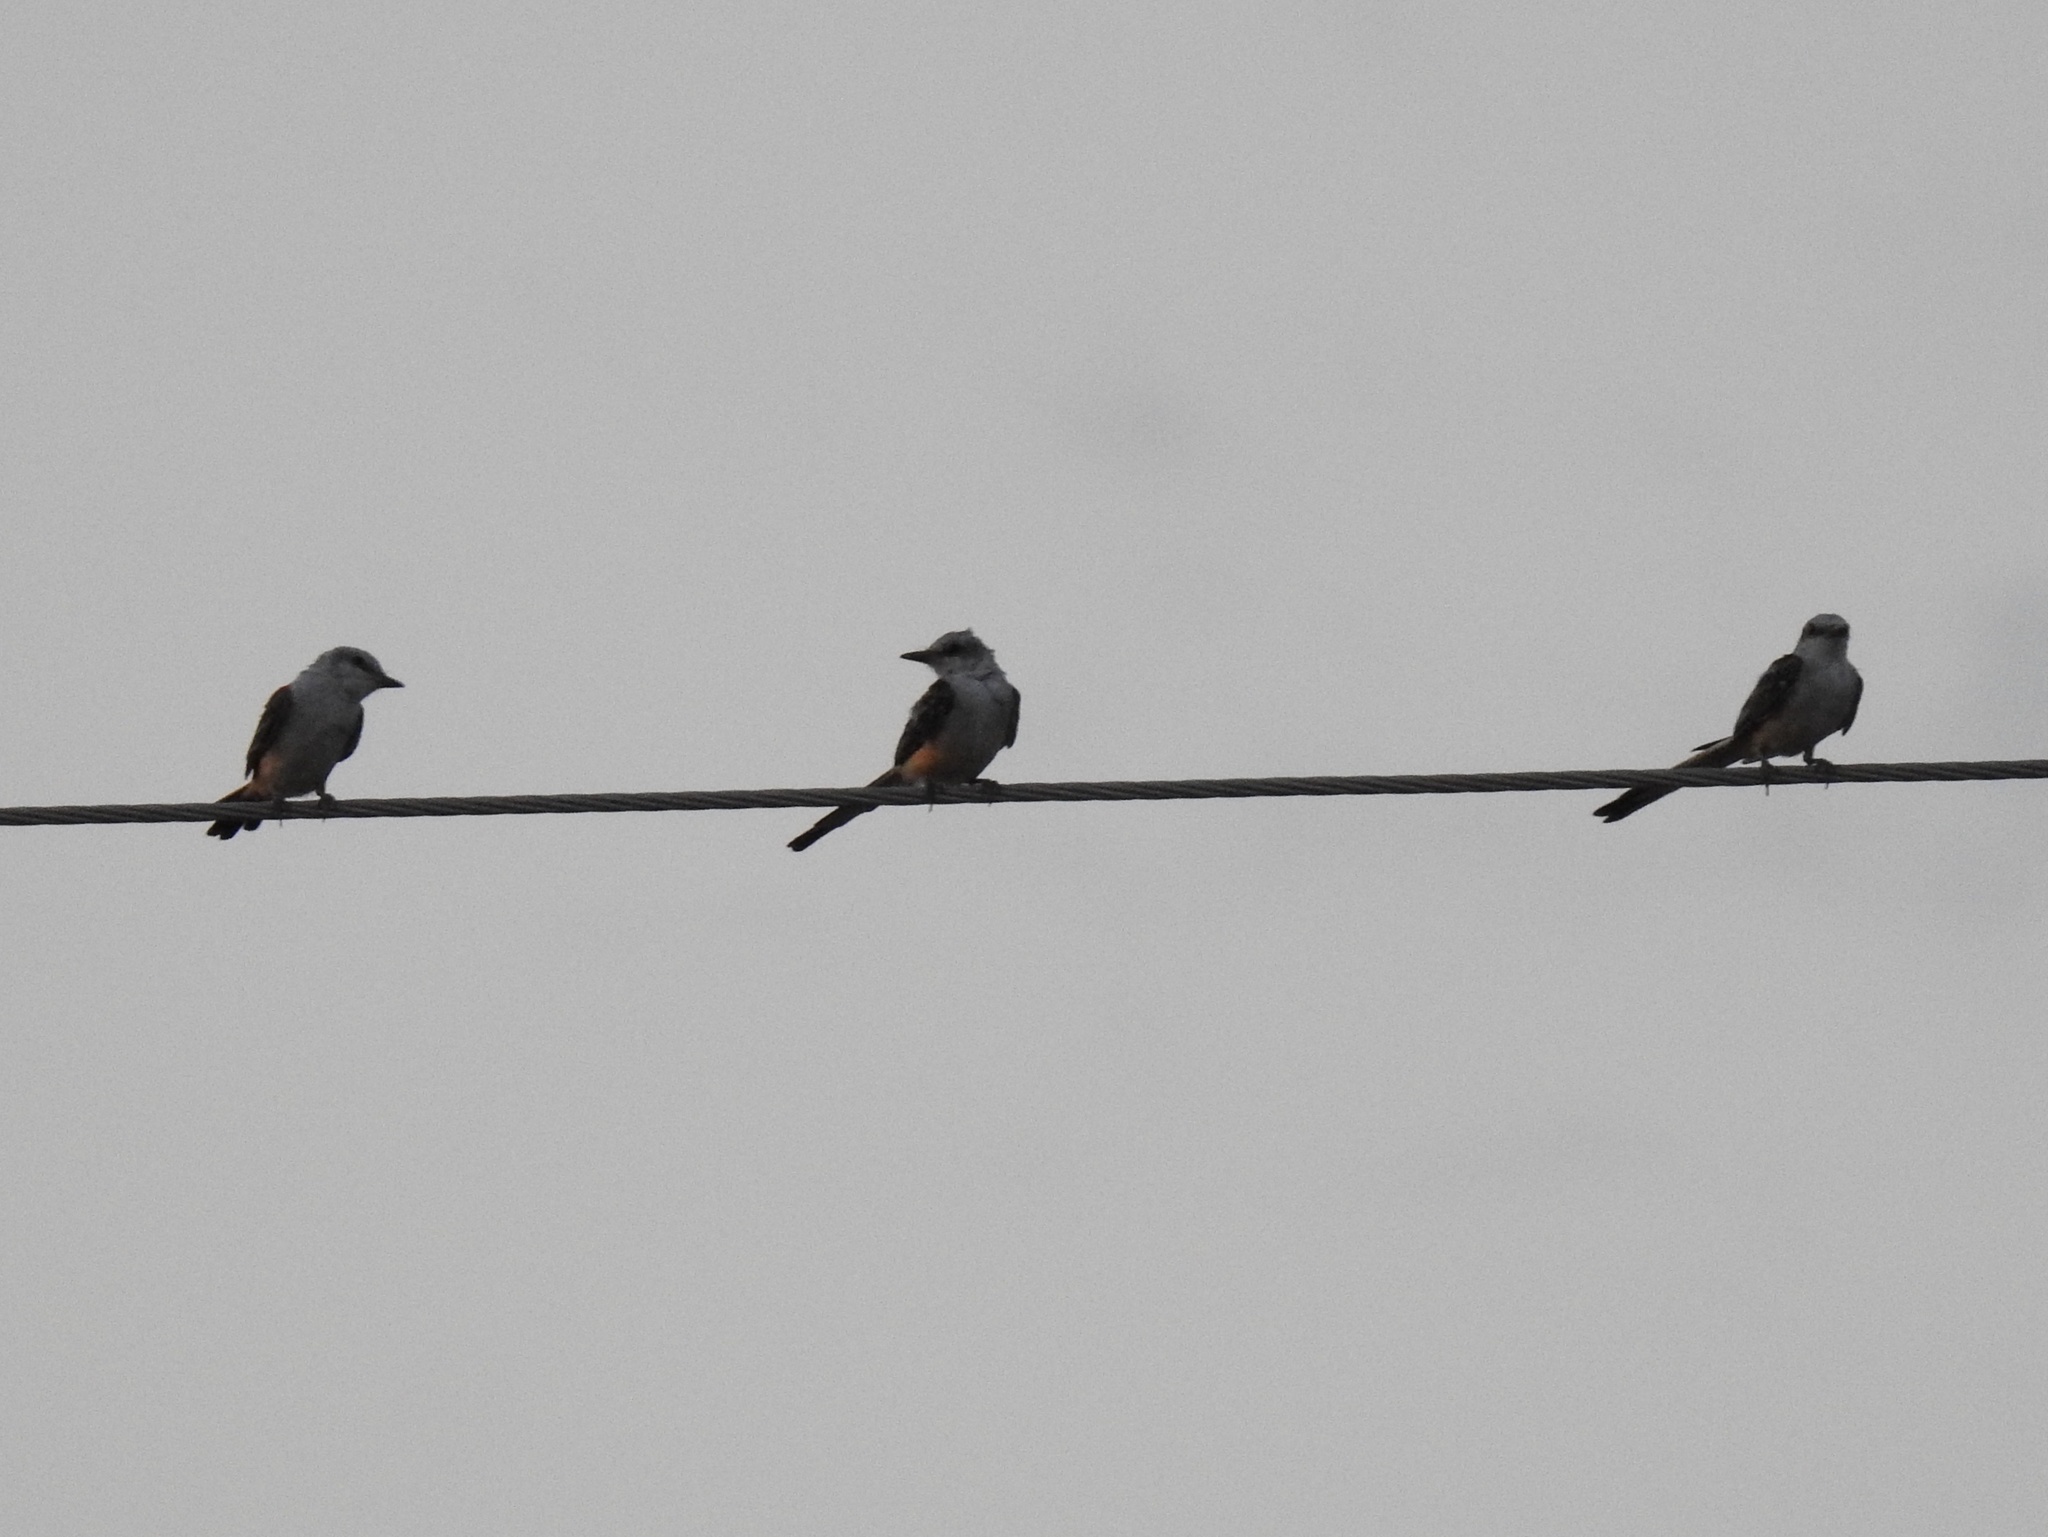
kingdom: Animalia
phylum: Chordata
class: Aves
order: Passeriformes
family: Tyrannidae
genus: Tyrannus
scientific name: Tyrannus forficatus
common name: Scissor-tailed flycatcher
